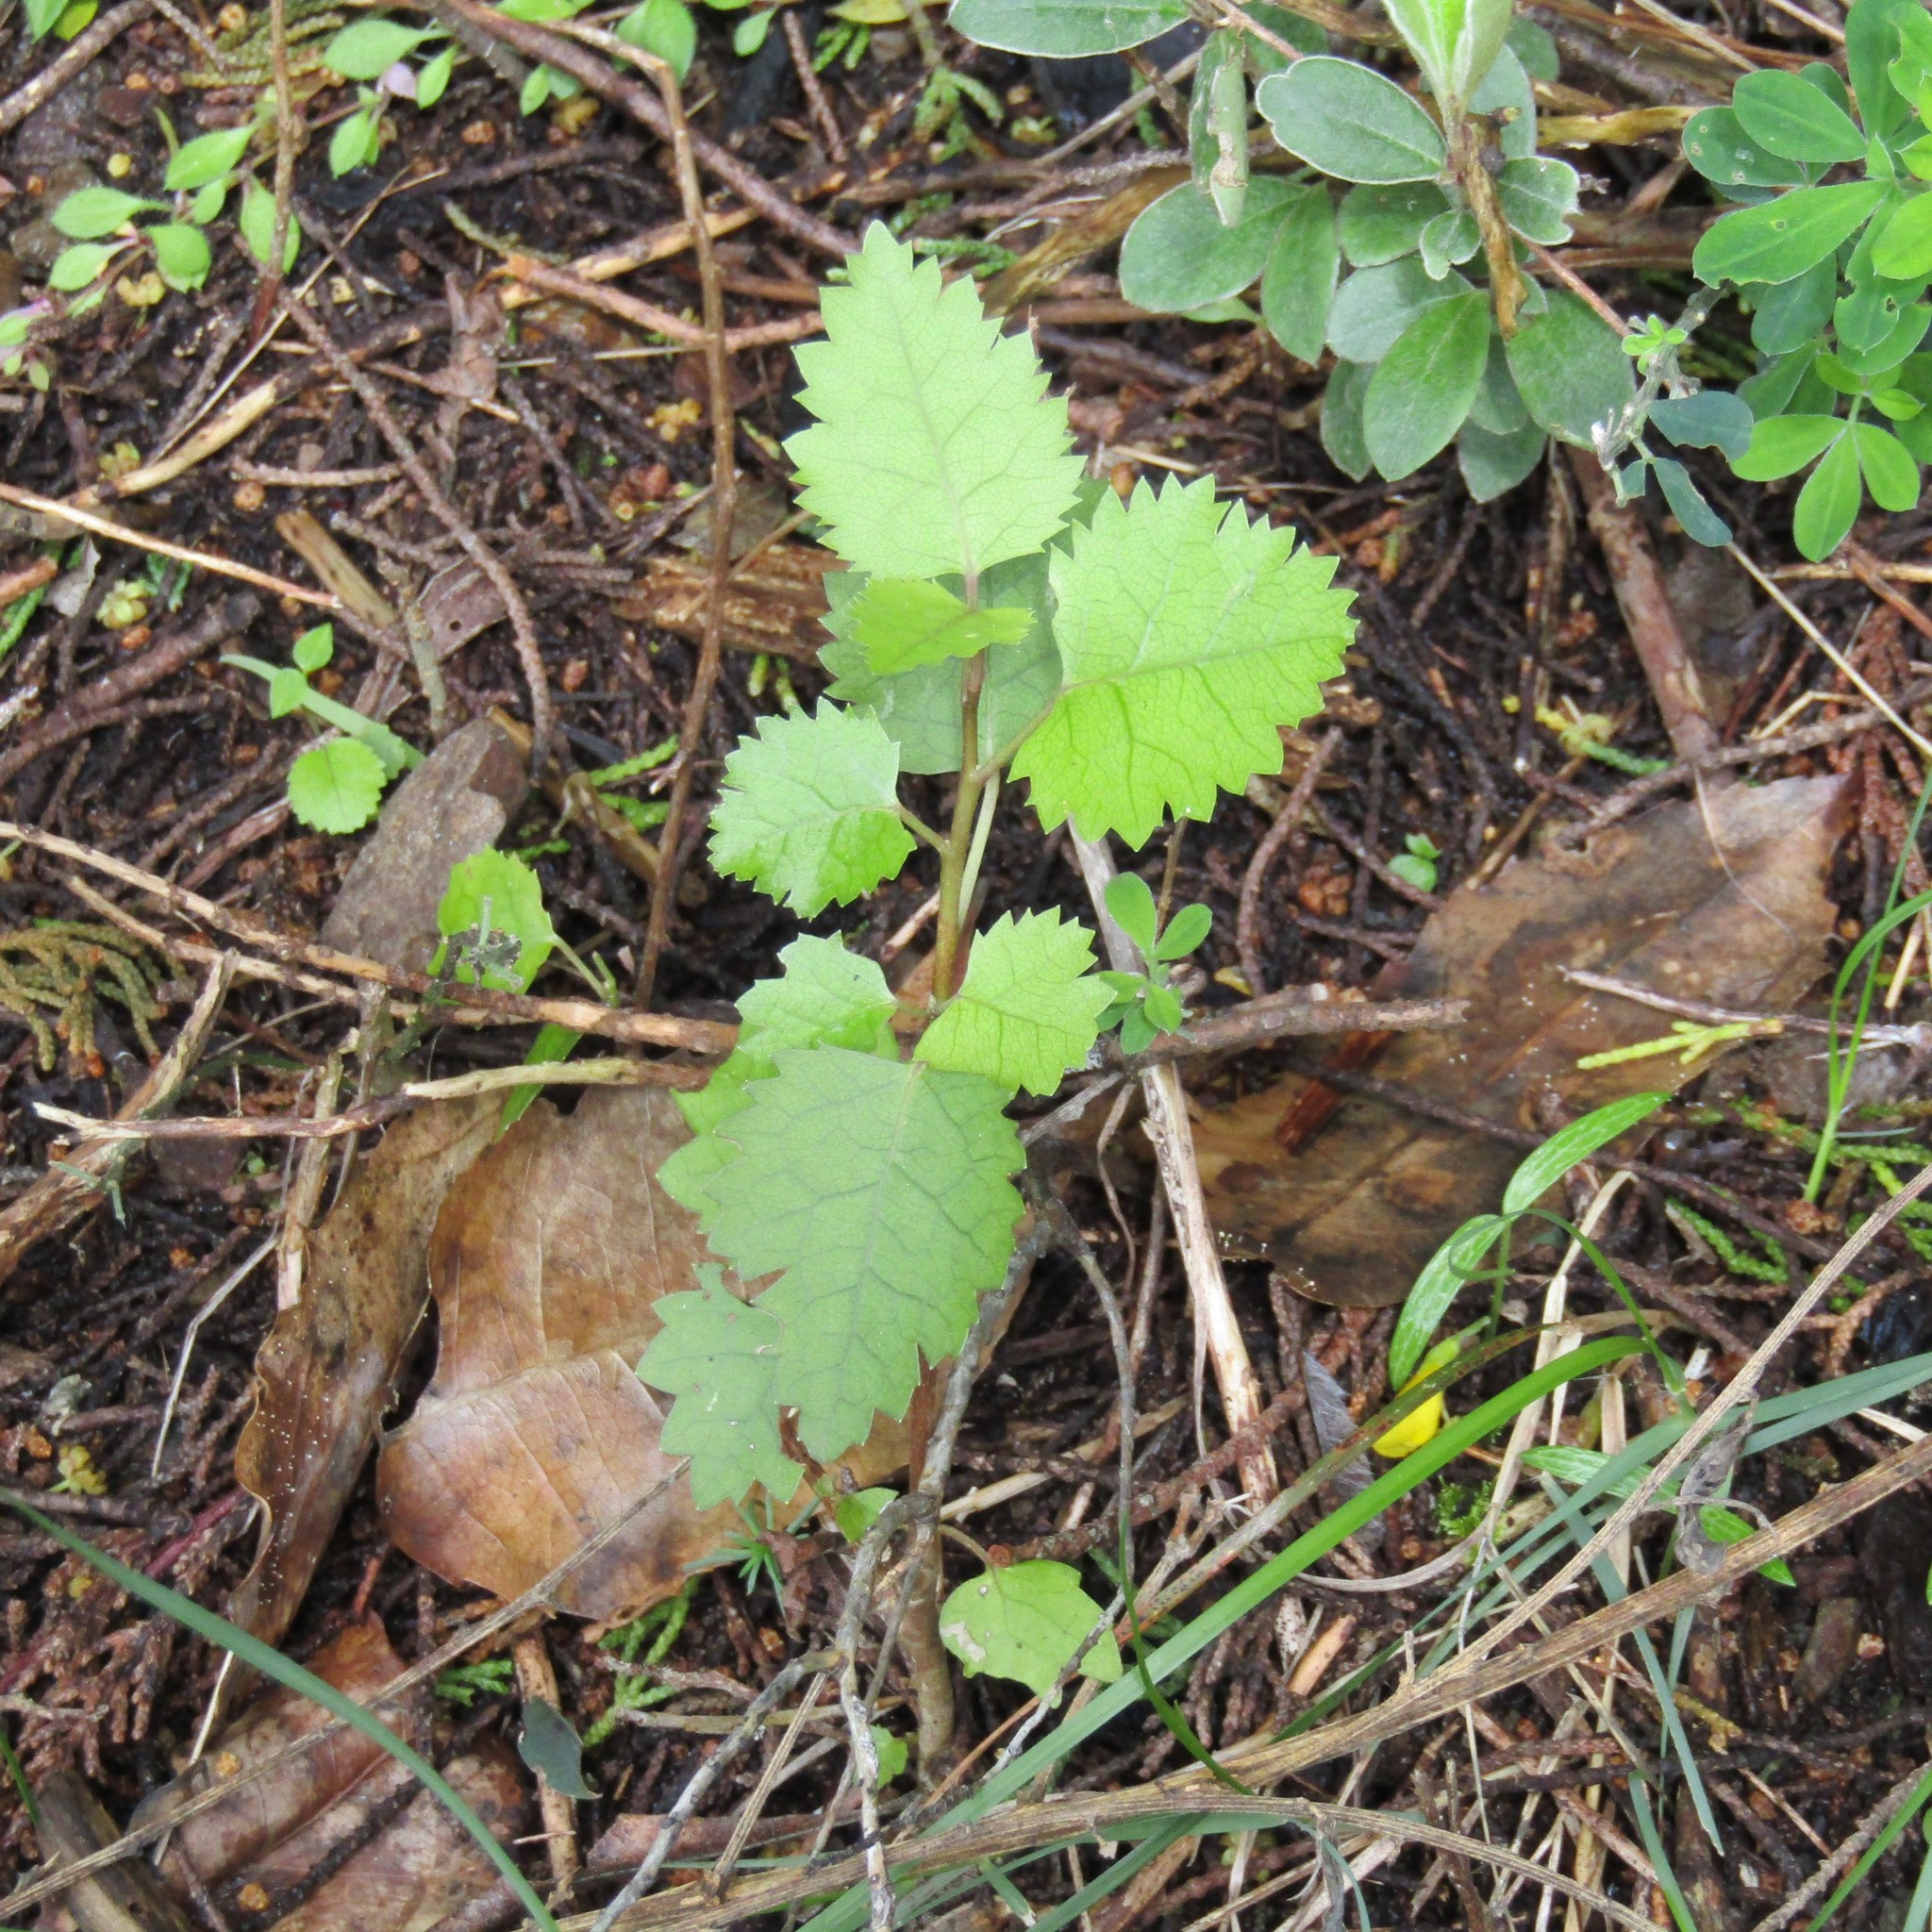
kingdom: Plantae
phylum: Tracheophyta
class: Magnoliopsida
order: Malvales
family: Malvaceae
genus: Hoheria
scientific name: Hoheria populnea
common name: Lacebark
